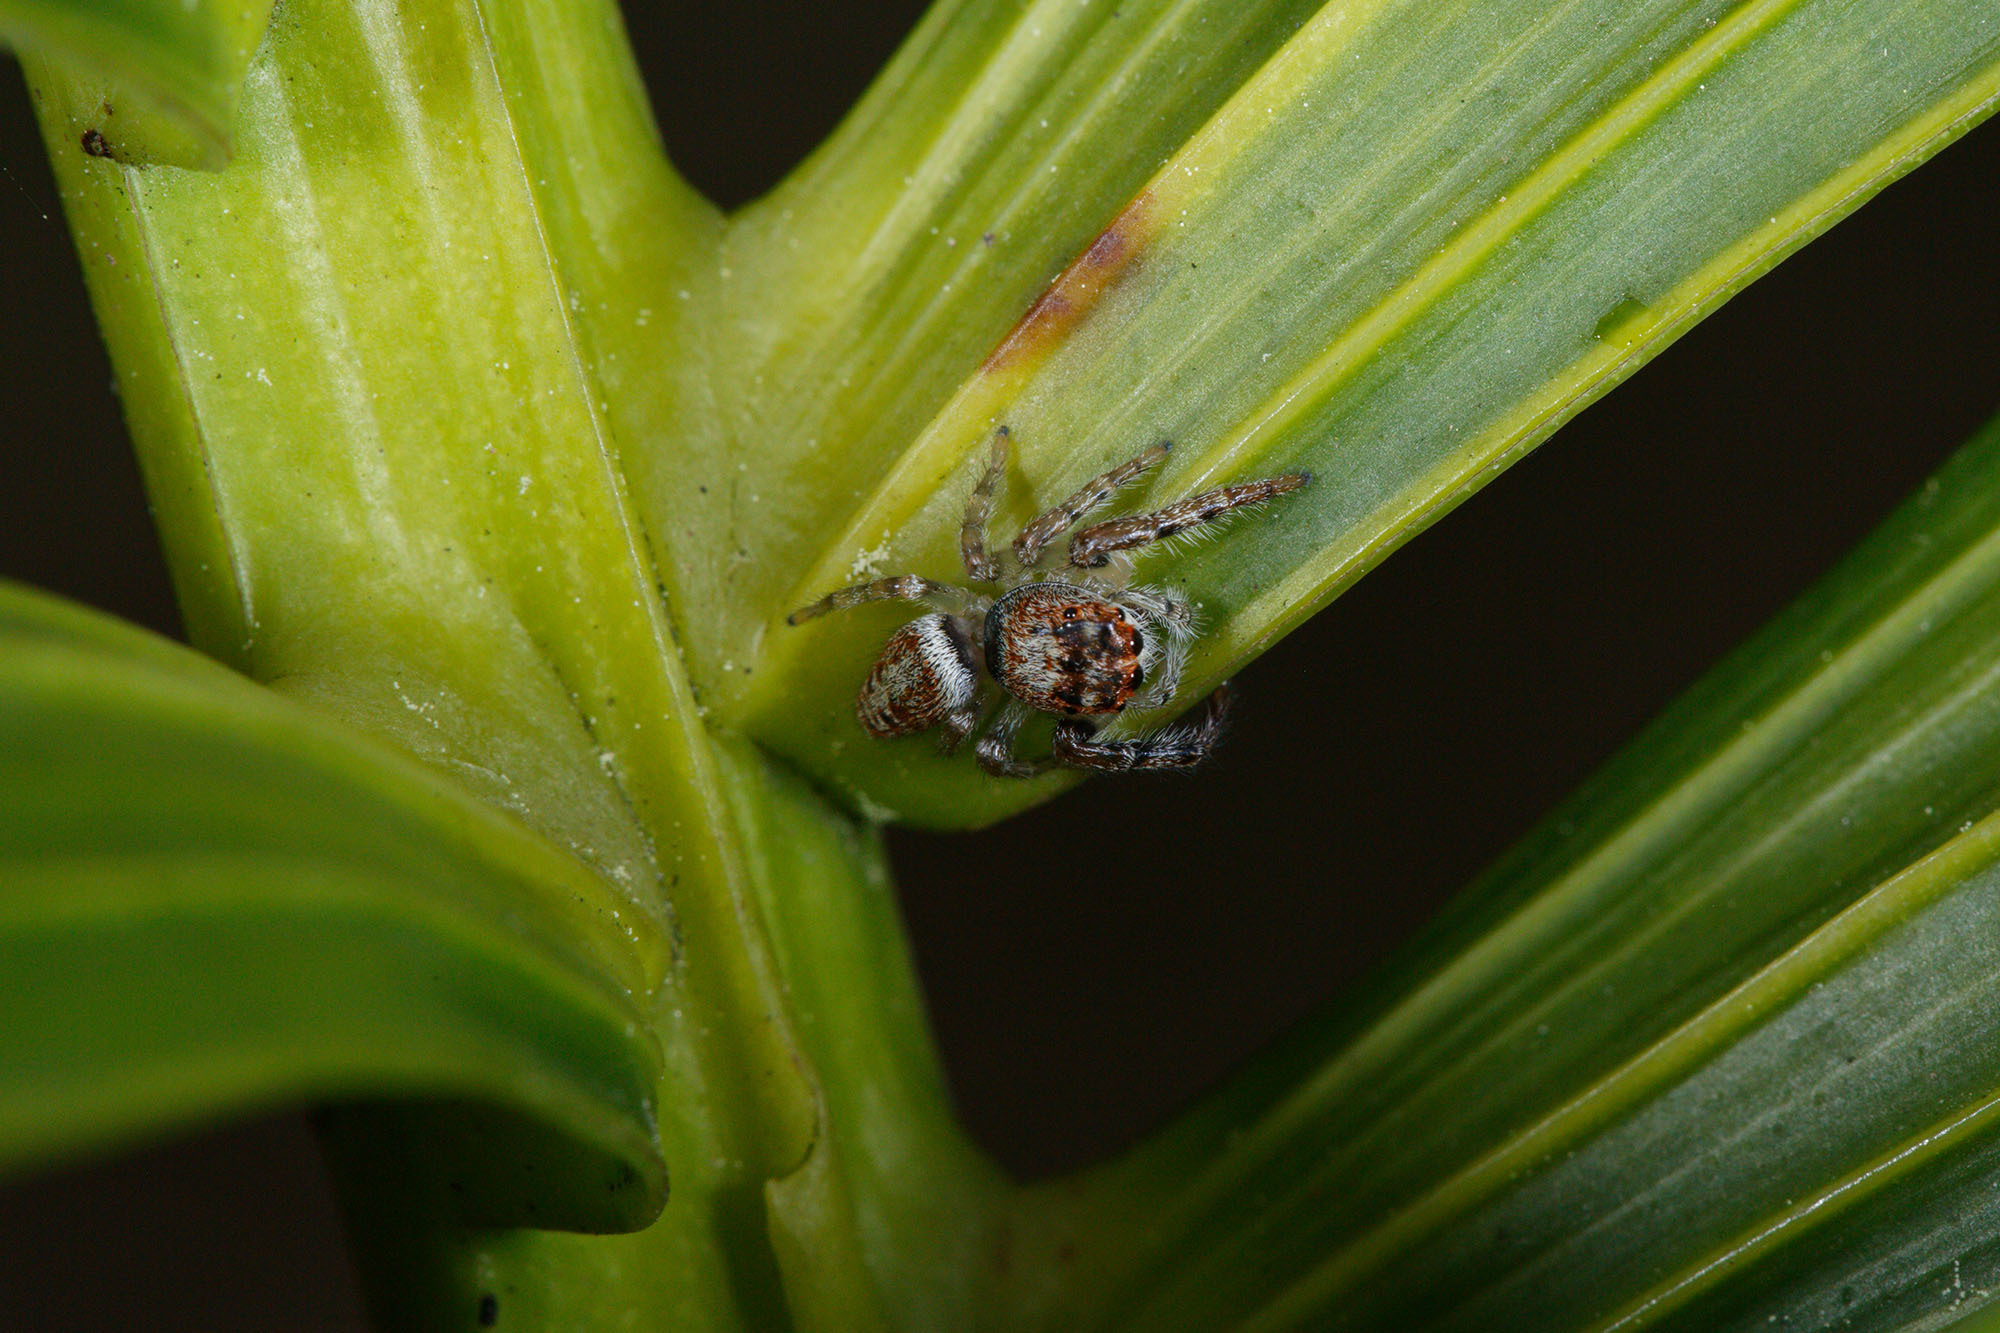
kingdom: Animalia
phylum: Arthropoda
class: Arachnida
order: Araneae
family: Salticidae
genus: Opisthoncus
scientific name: Opisthoncus polyphemus
